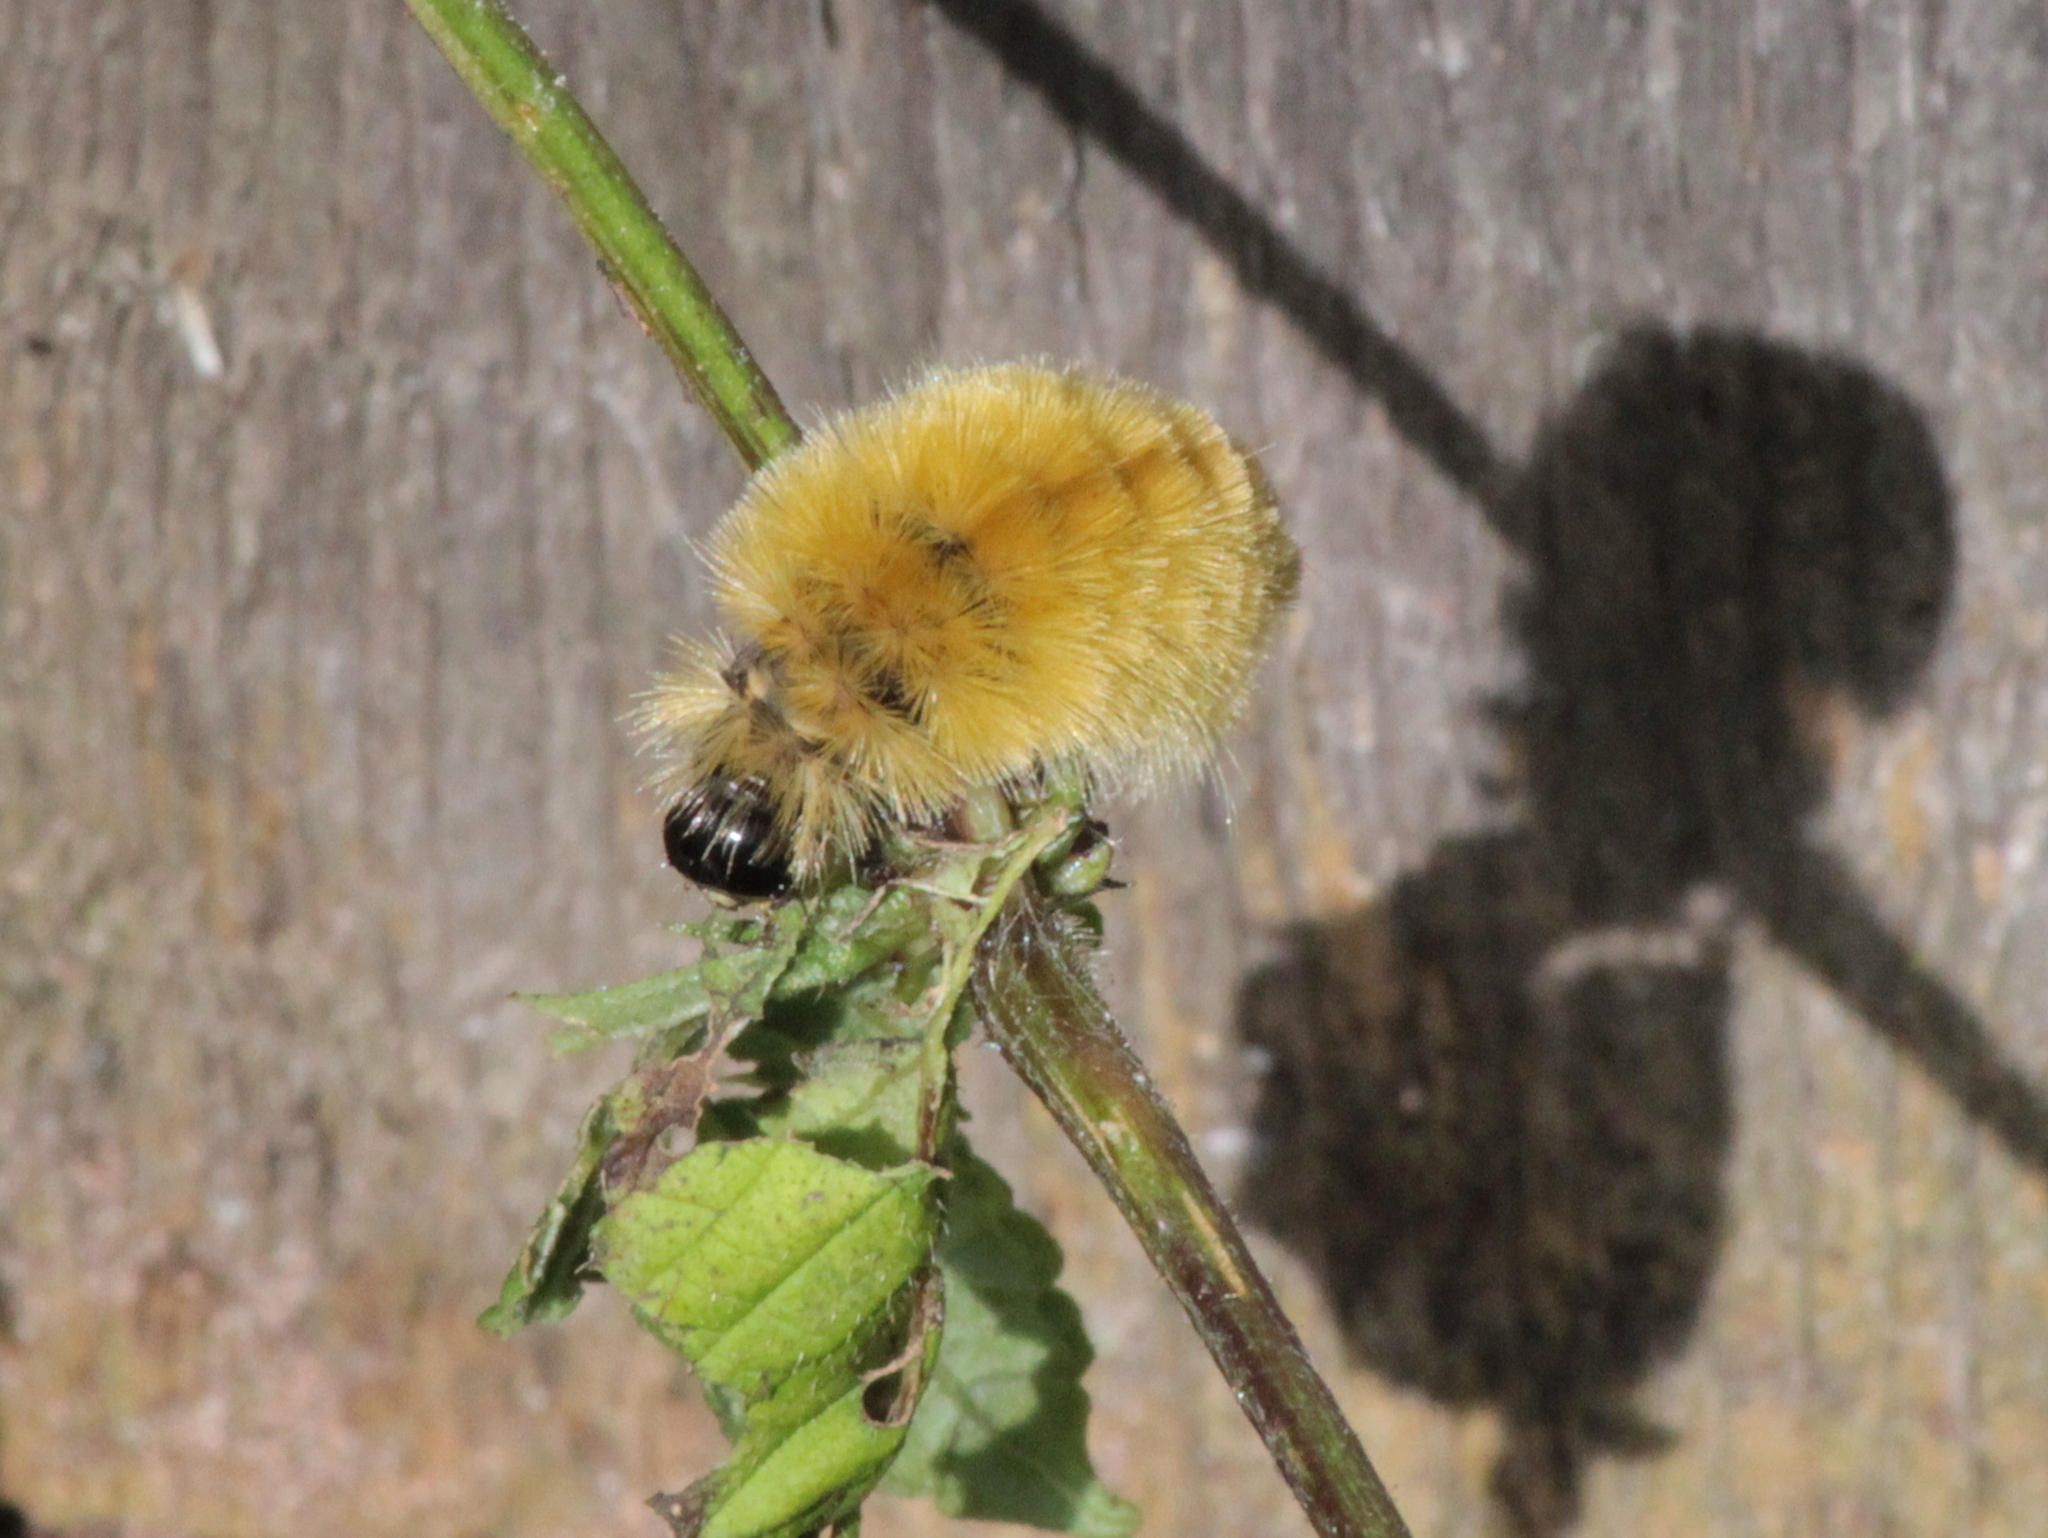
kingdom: Animalia
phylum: Arthropoda
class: Insecta
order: Lepidoptera
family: Erebidae
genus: Halysidota
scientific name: Halysidota tessellaris
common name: Banded tussock moth
